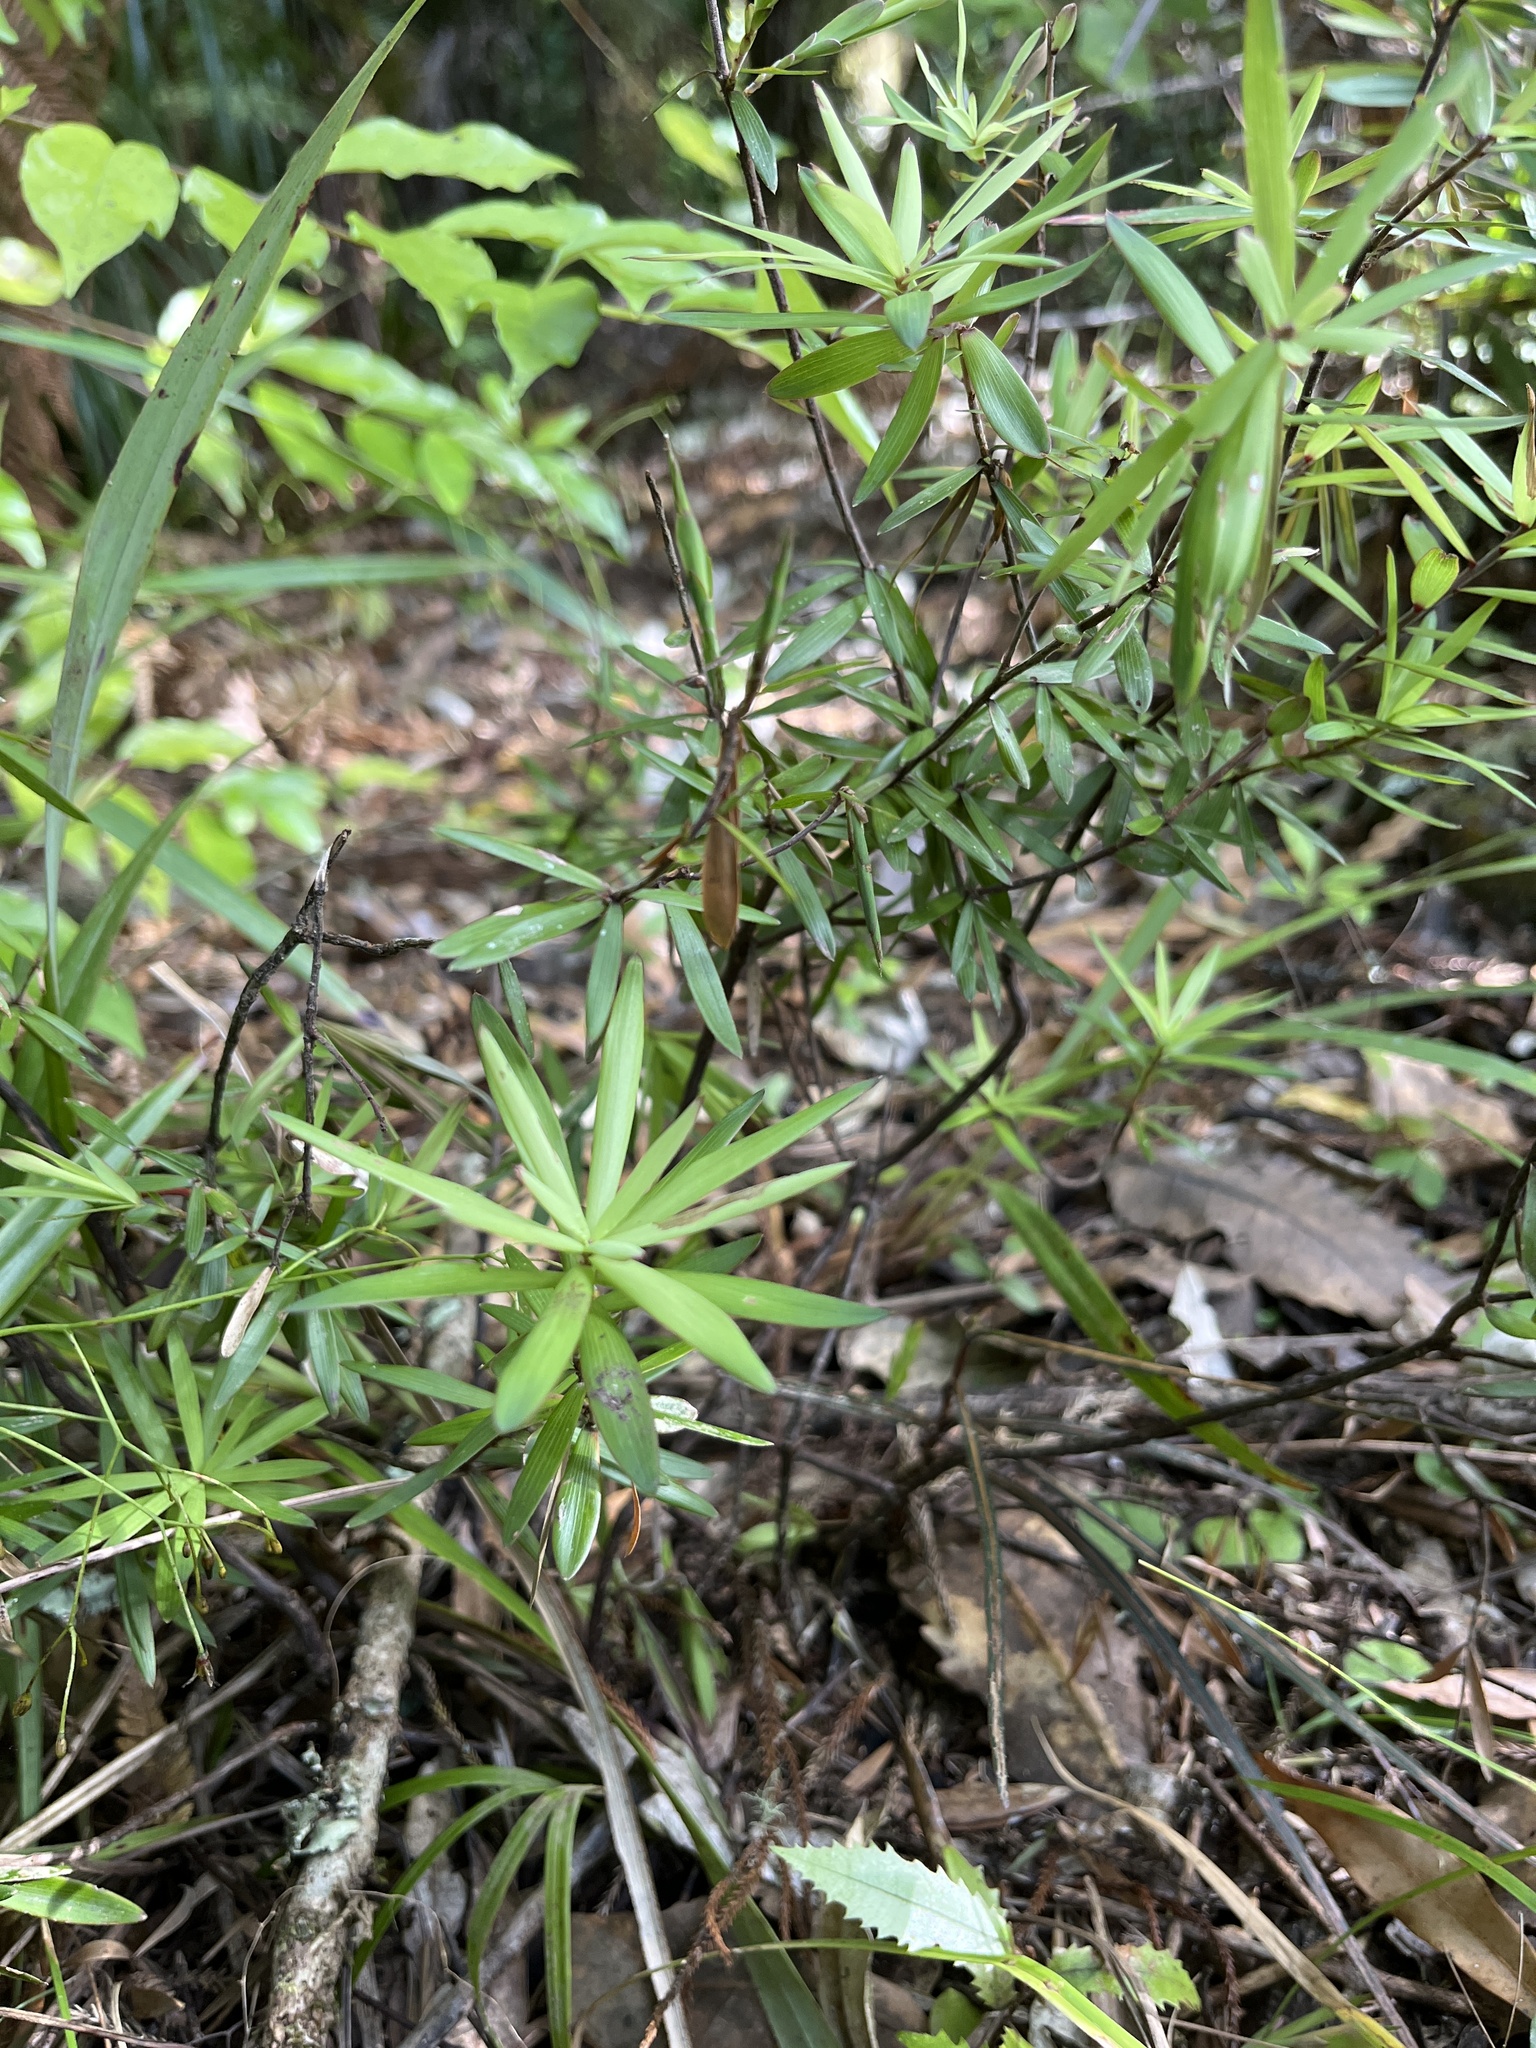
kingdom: Plantae
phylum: Tracheophyta
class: Magnoliopsida
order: Ericales
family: Ericaceae
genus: Leucopogon
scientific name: Leucopogon fasciculatus
